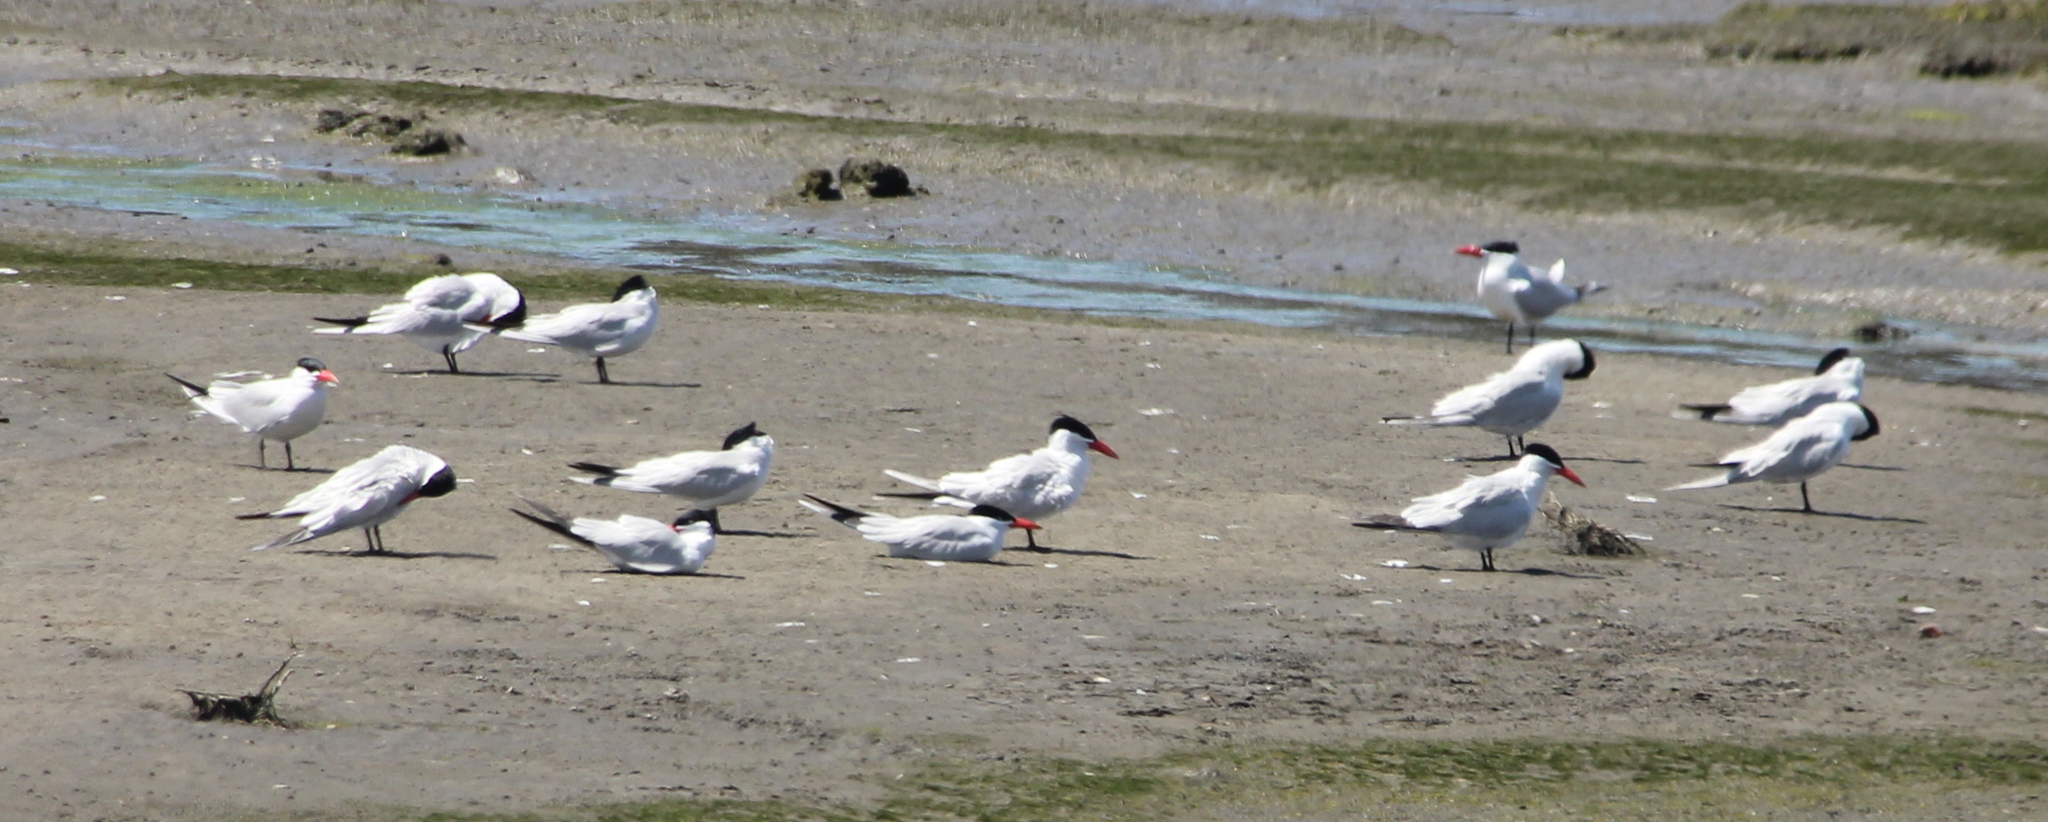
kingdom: Animalia
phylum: Chordata
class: Aves
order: Charadriiformes
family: Laridae
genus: Hydroprogne
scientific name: Hydroprogne caspia
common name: Caspian tern
